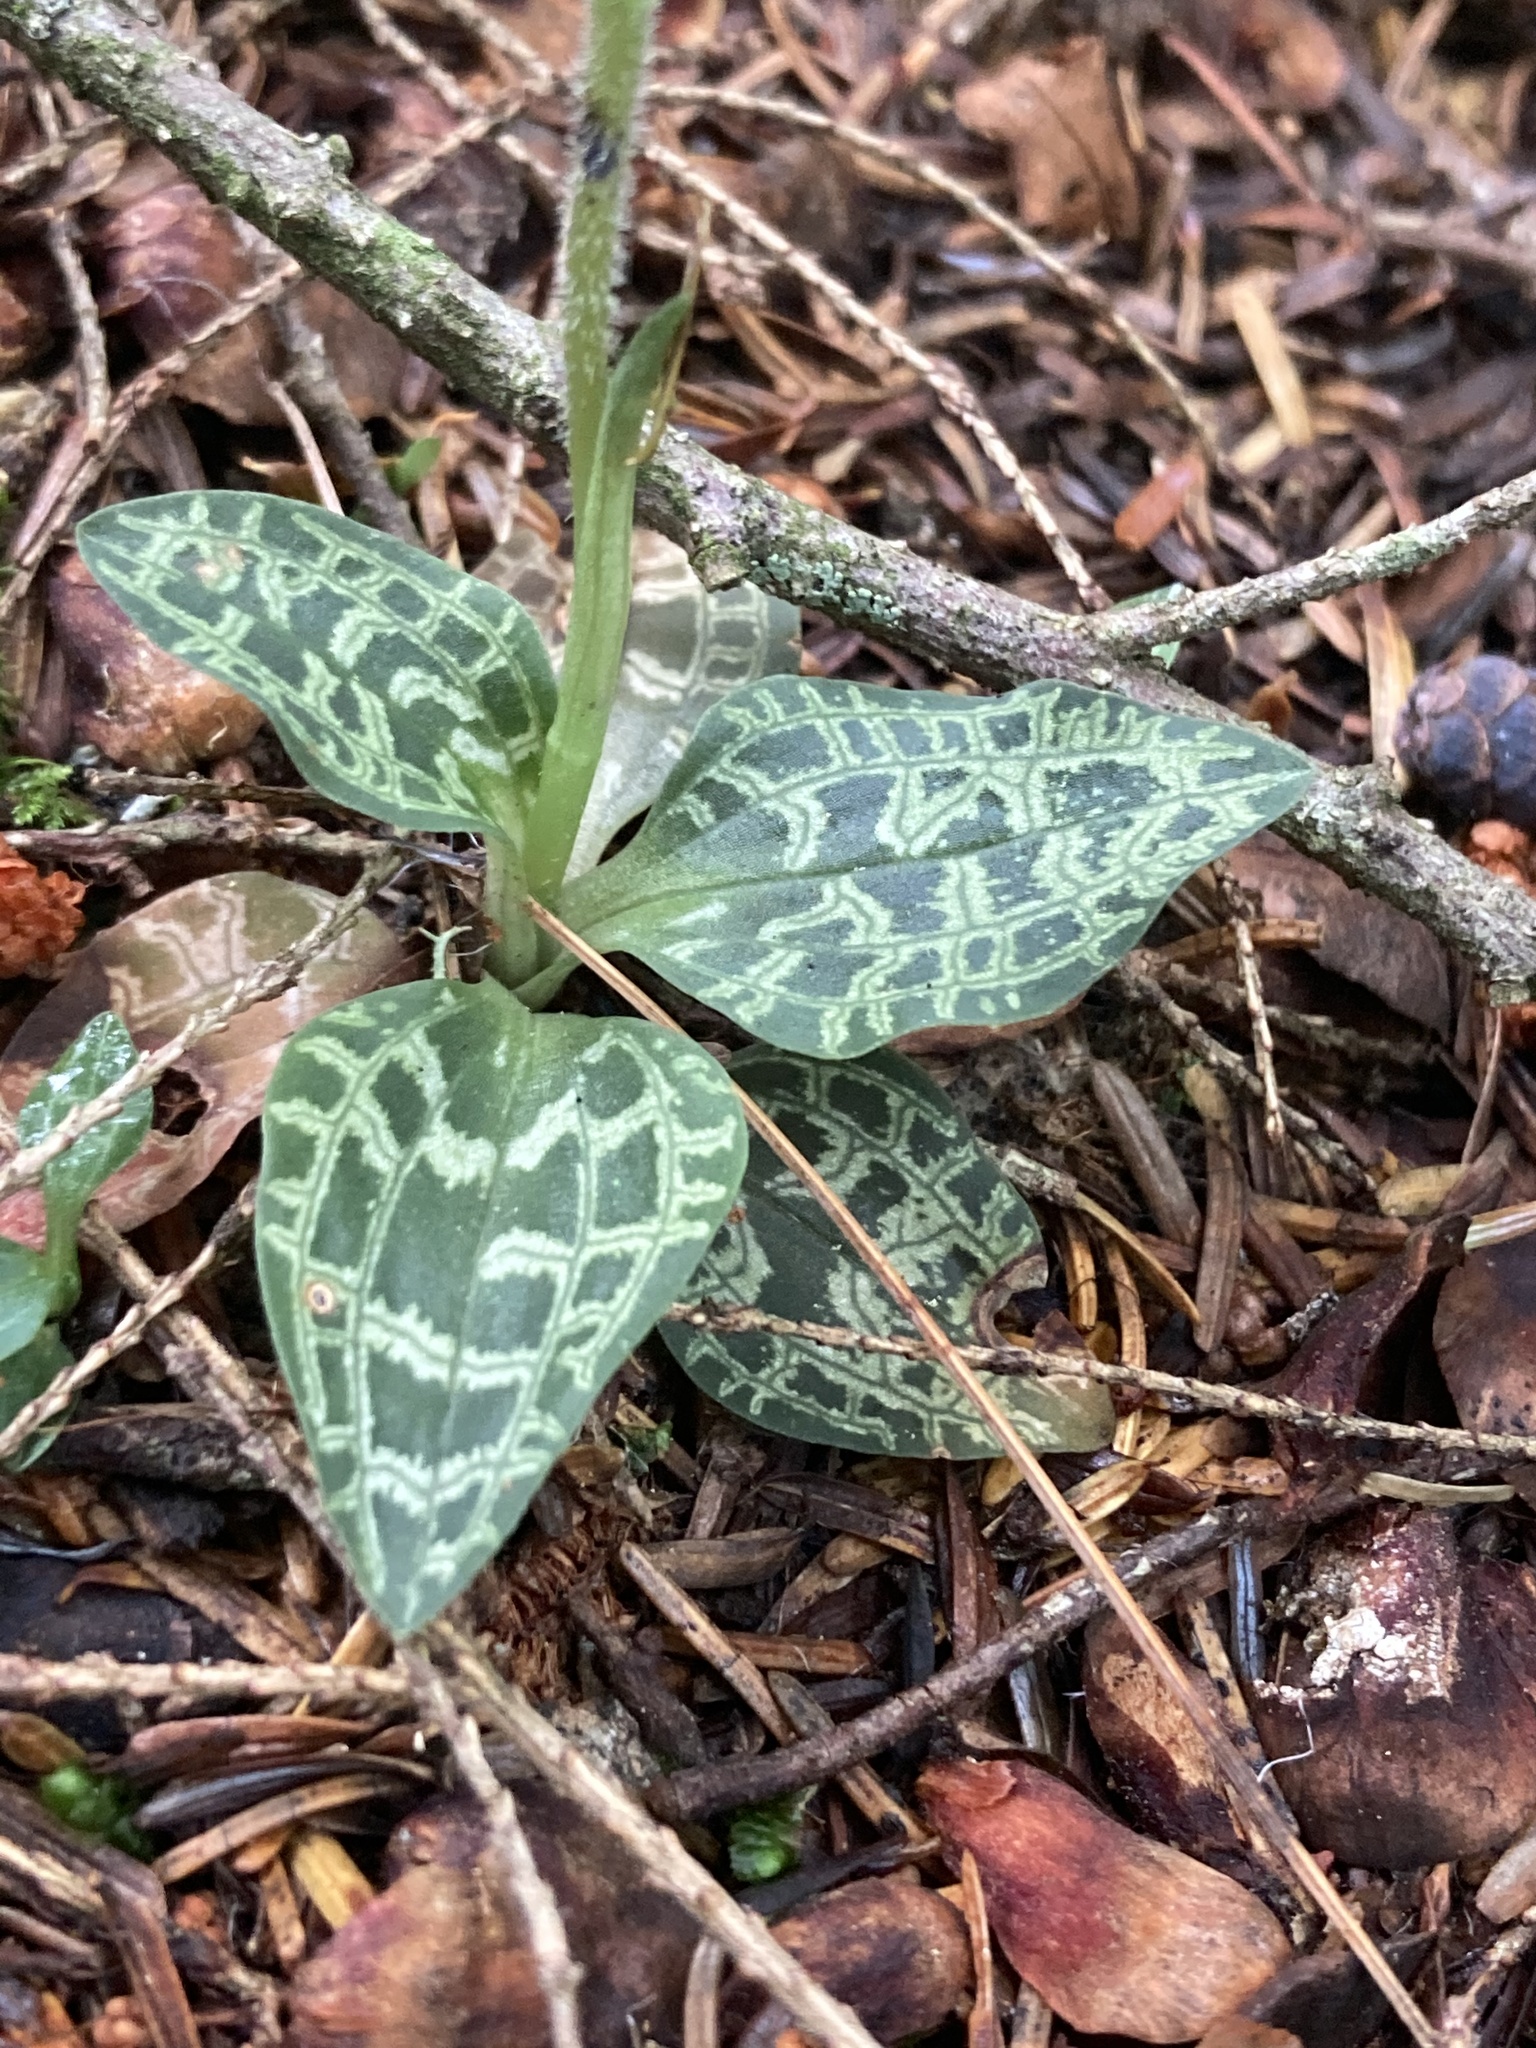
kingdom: Plantae
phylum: Tracheophyta
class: Liliopsida
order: Asparagales
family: Orchidaceae
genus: Goodyera
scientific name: Goodyera repens
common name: Creeping lady's-tresses
